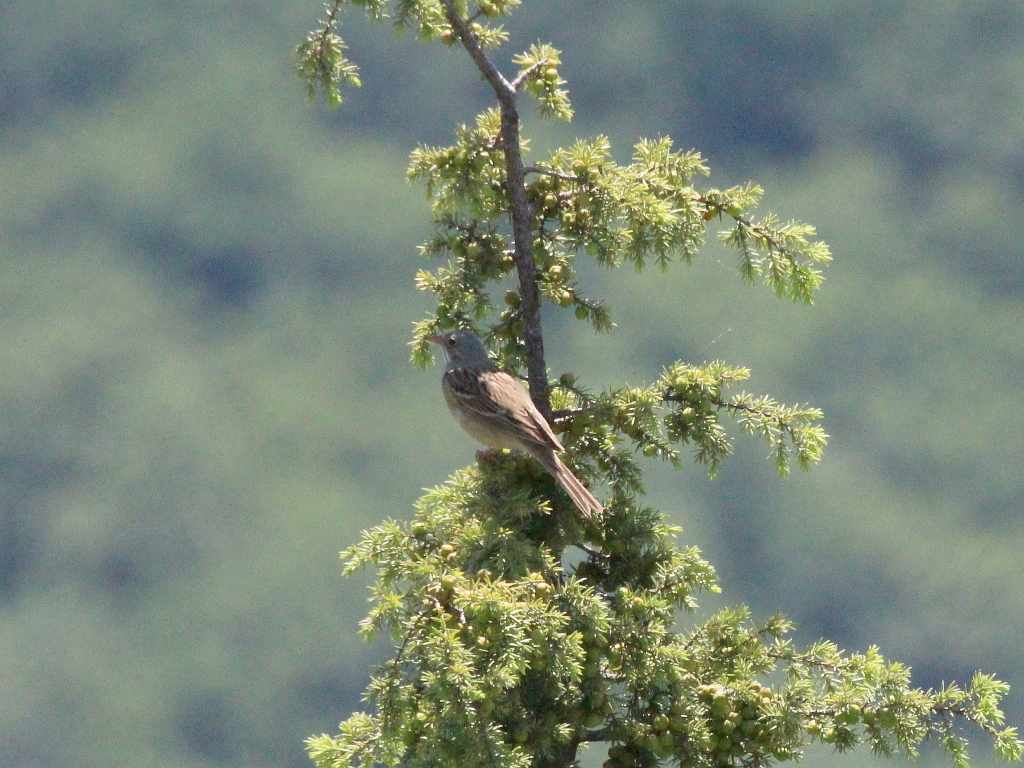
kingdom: Animalia
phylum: Chordata
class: Aves
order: Passeriformes
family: Emberizidae
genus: Emberiza
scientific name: Emberiza hortulana
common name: Ortolan bunting
